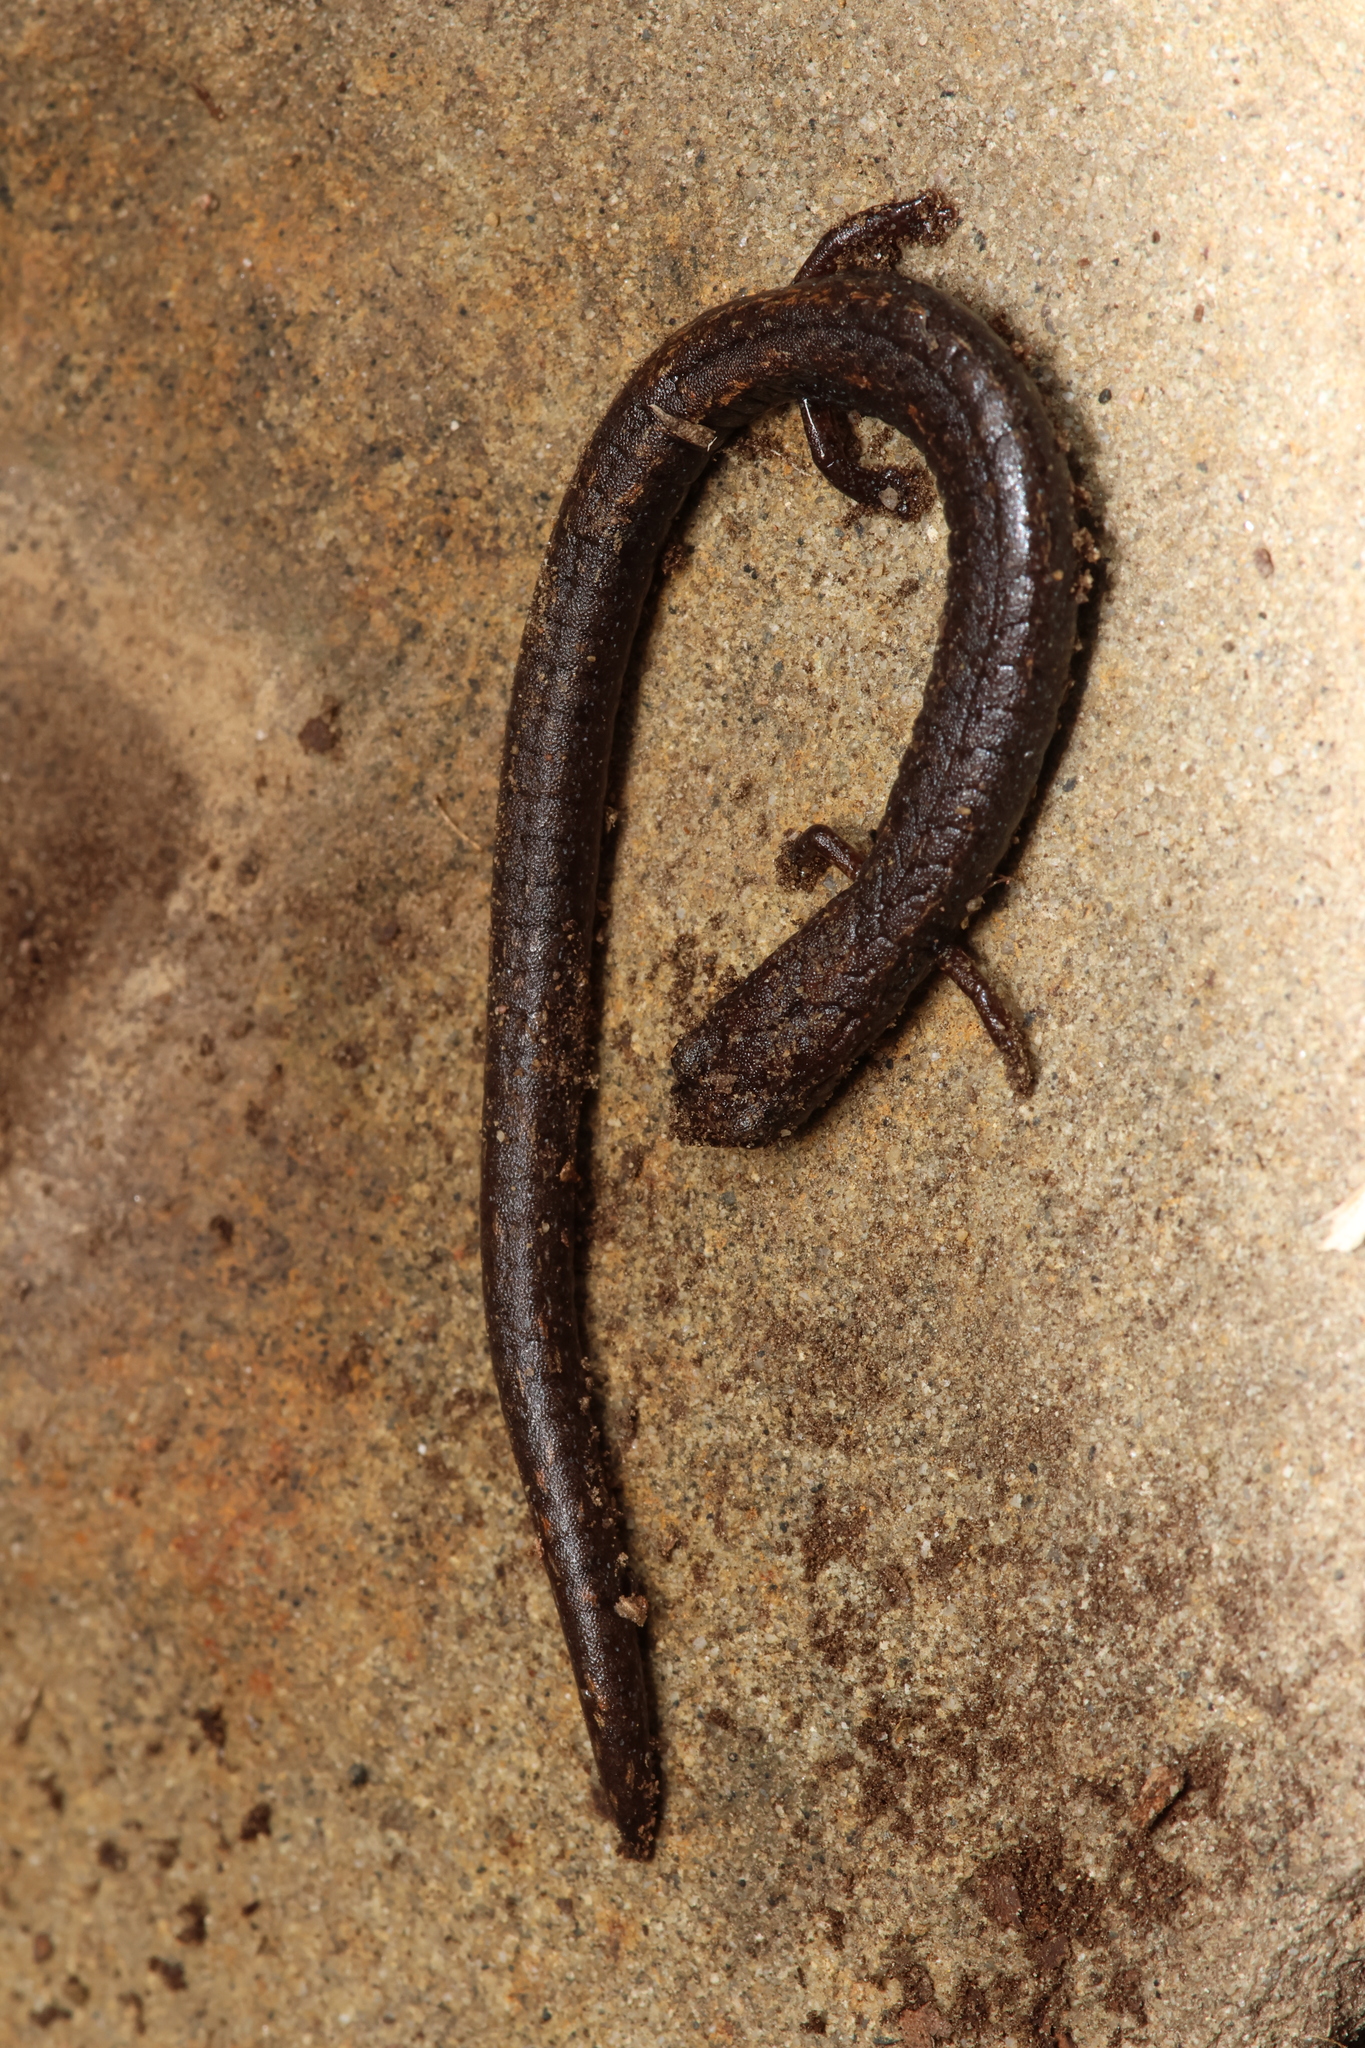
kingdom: Animalia
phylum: Chordata
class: Amphibia
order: Caudata
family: Plethodontidae
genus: Batrachoseps
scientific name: Batrachoseps nigriventris
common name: Black-bellied slender salamander
